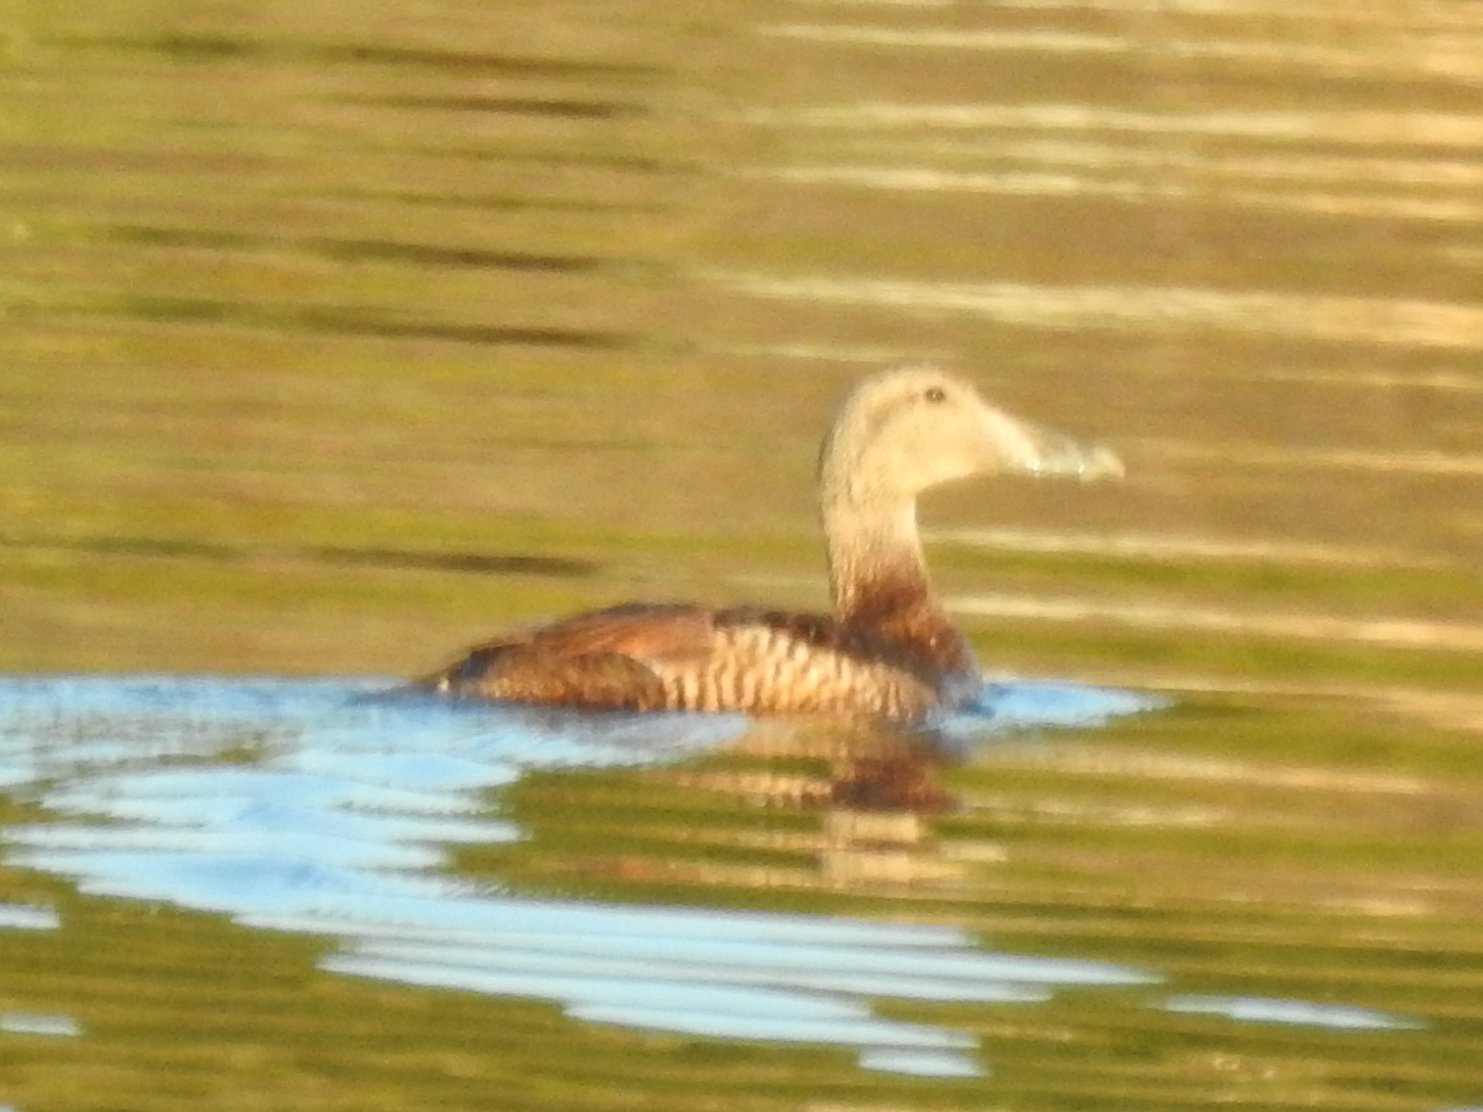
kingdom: Animalia
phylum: Chordata
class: Aves
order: Anseriformes
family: Anatidae
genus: Somateria
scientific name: Somateria mollissima
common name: Common eider
